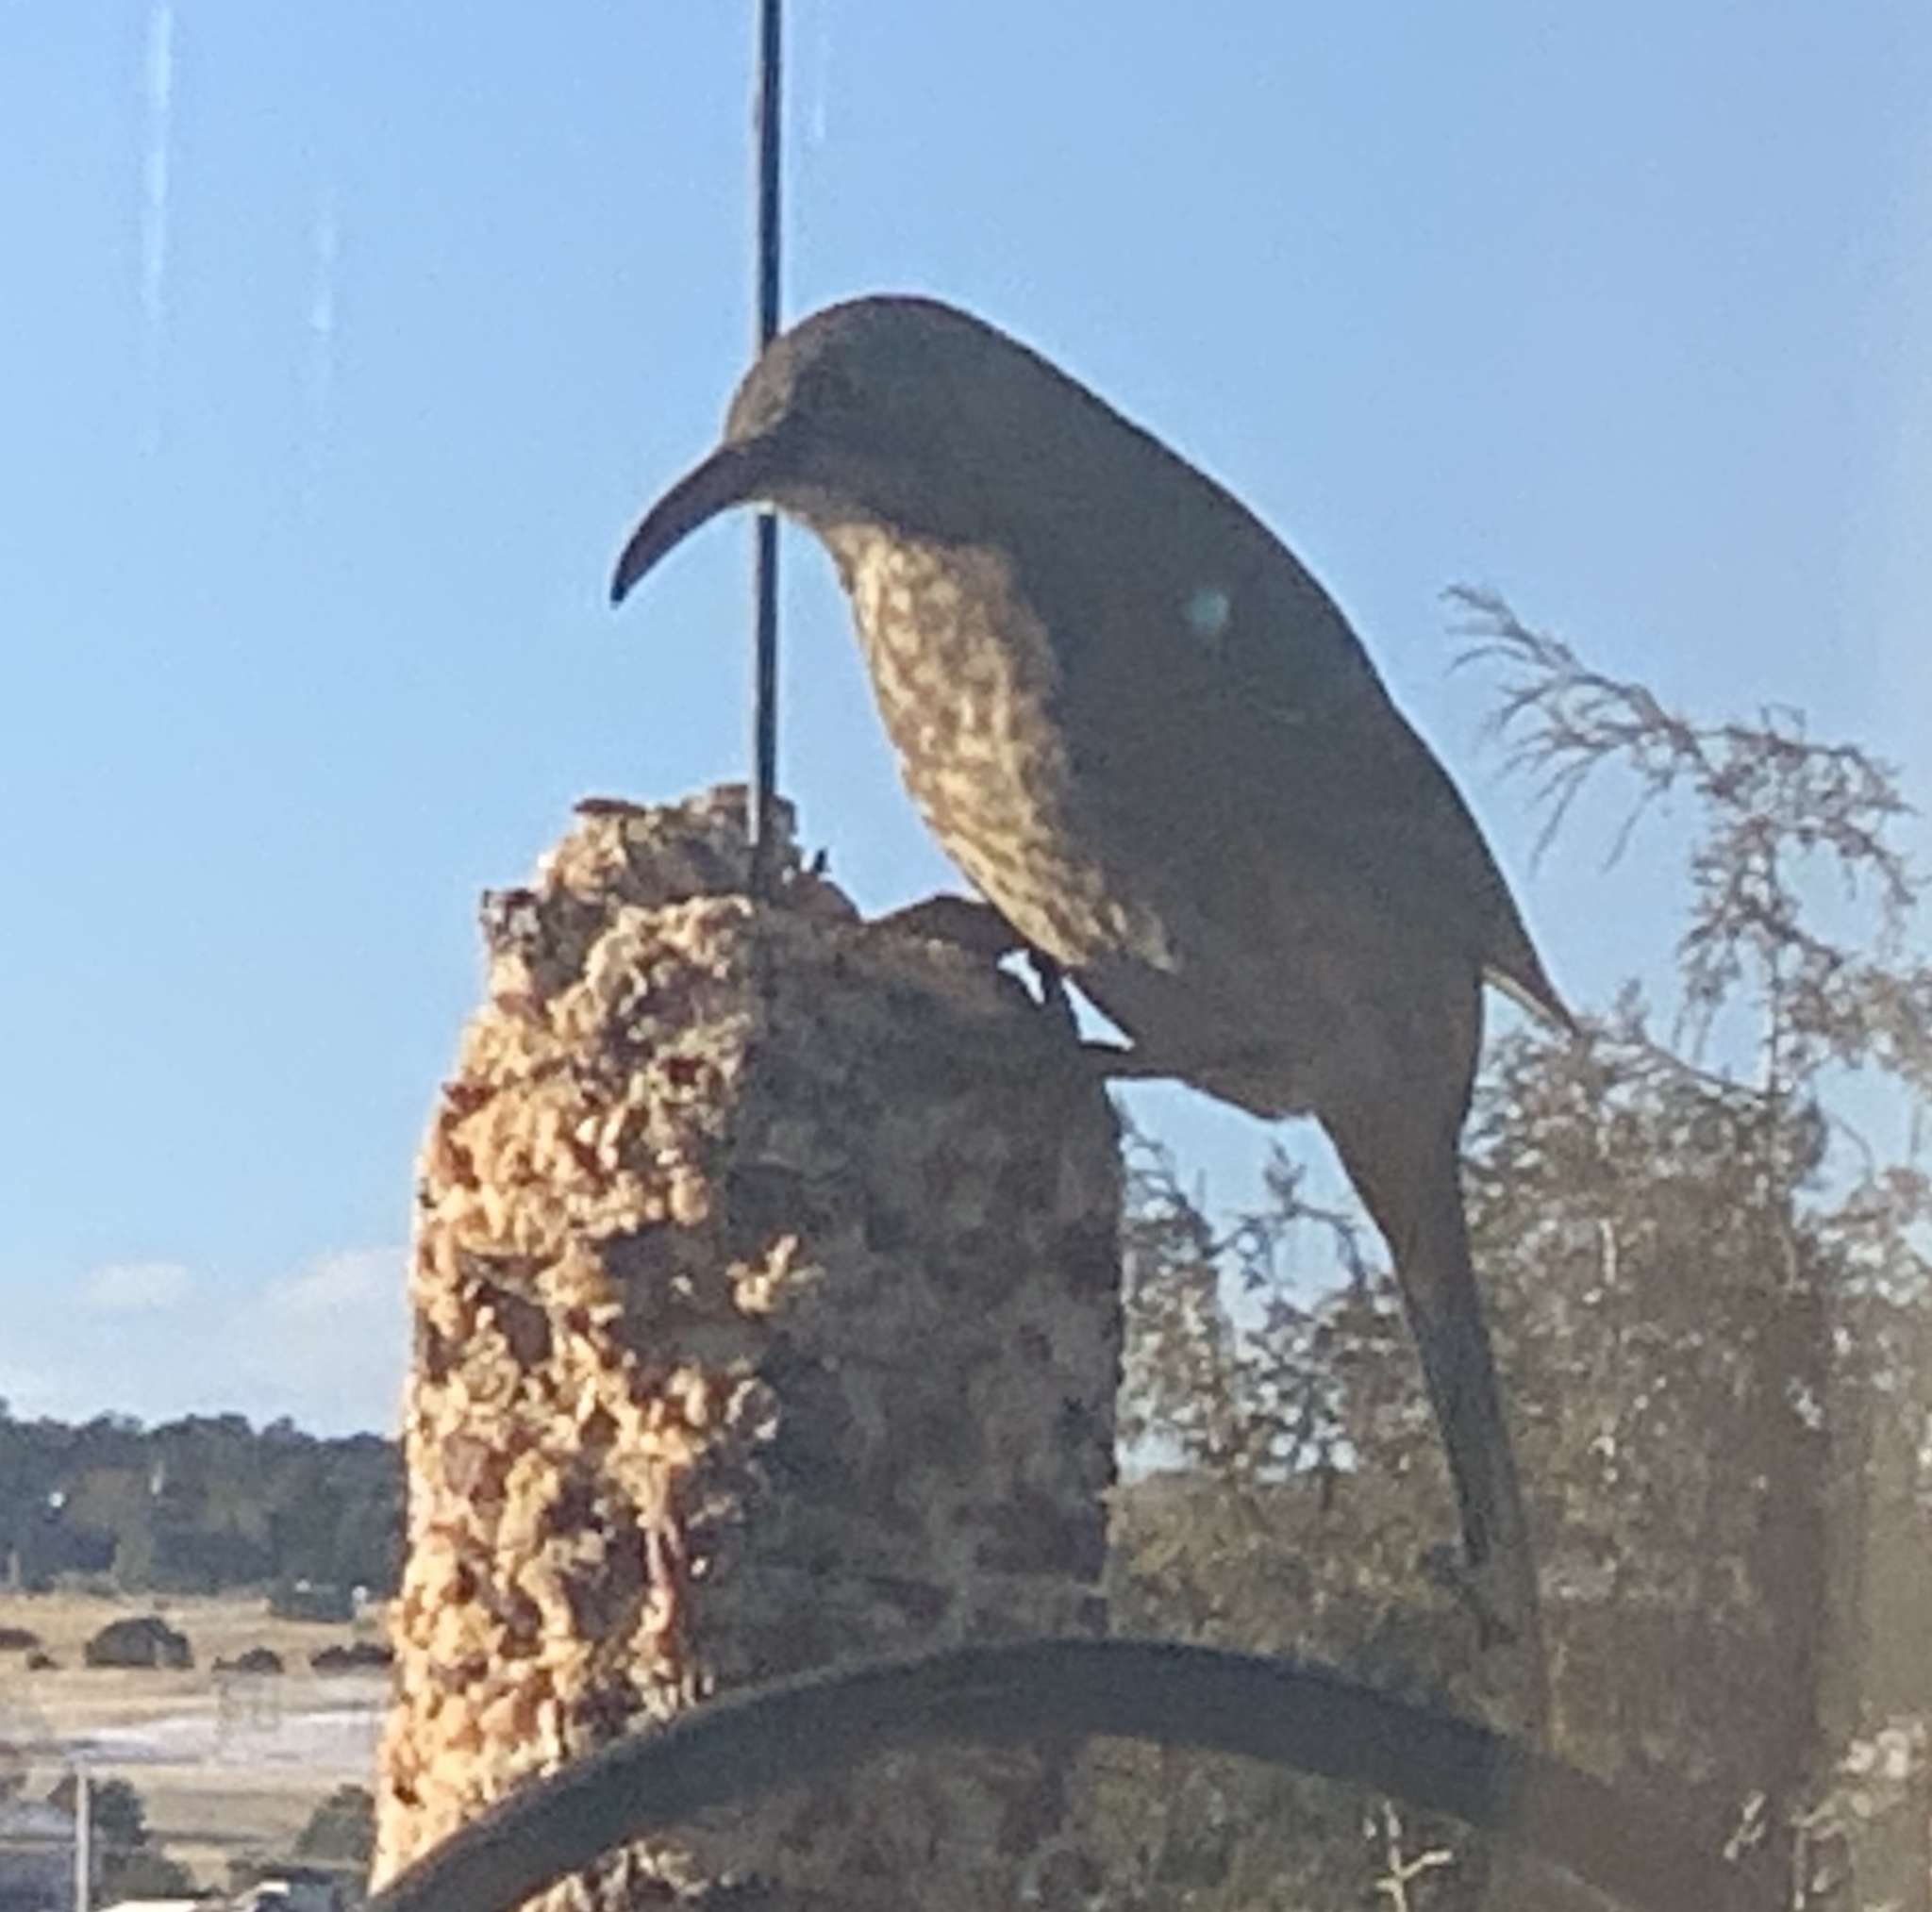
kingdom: Animalia
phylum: Chordata
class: Aves
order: Passeriformes
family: Mimidae
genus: Toxostoma
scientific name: Toxostoma curvirostre
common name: Curve-billed thrasher
